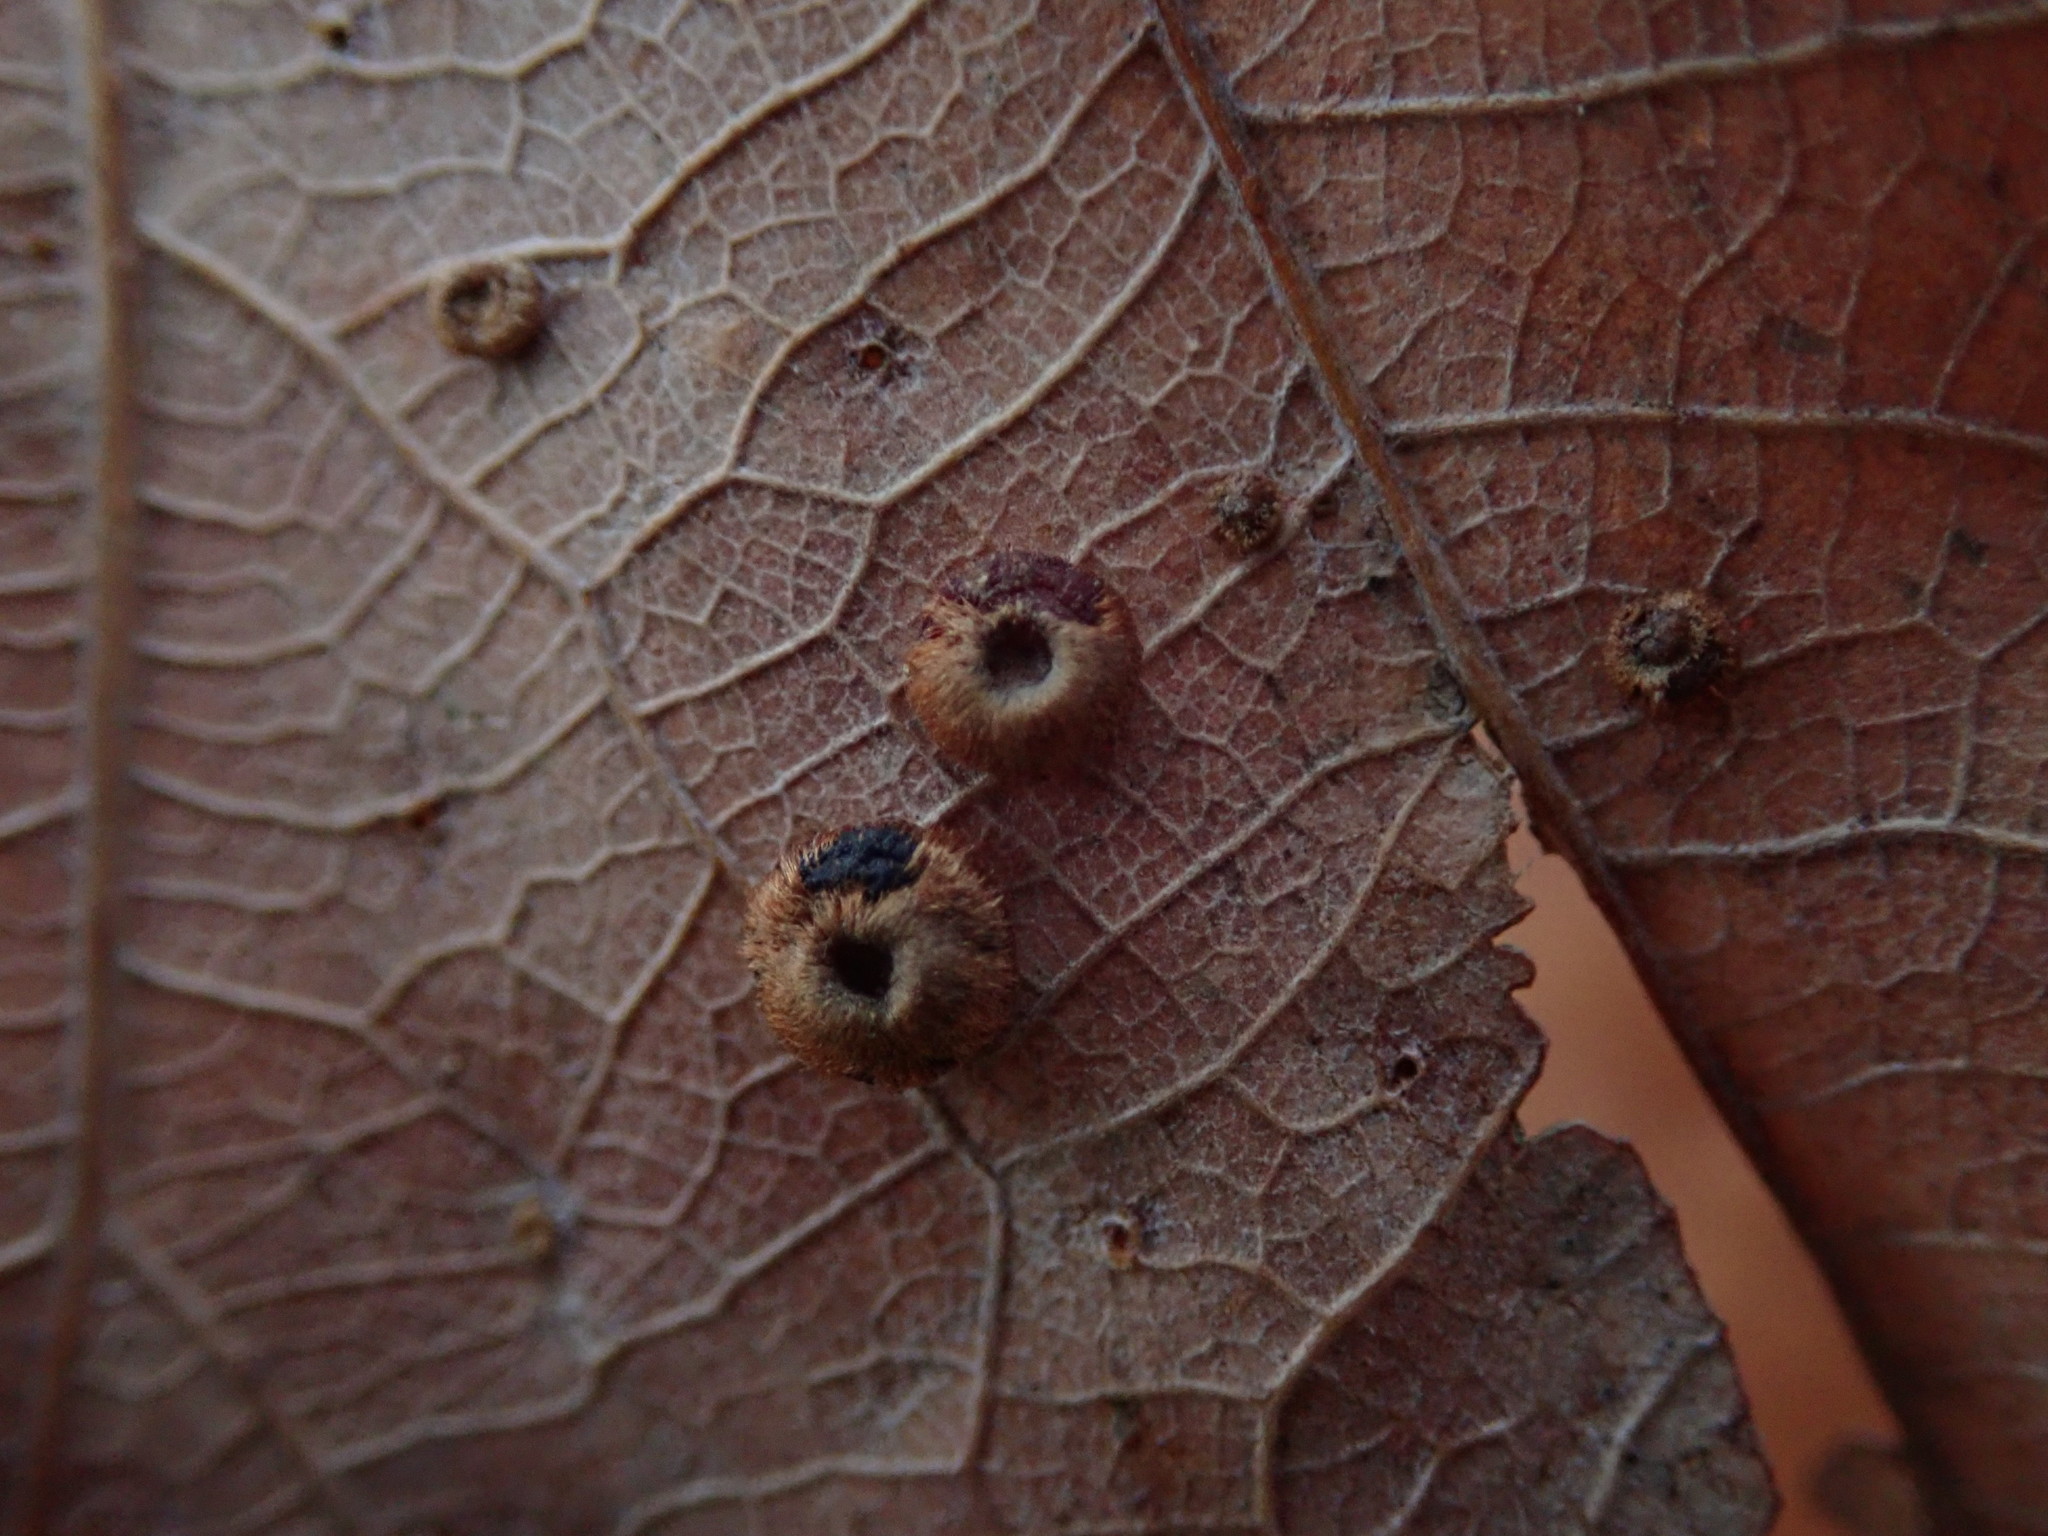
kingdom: Animalia
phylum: Arthropoda
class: Insecta
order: Hymenoptera
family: Cynipidae
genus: Neuroterus
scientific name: Neuroterus numismalis
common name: Silk-button spangle gall
